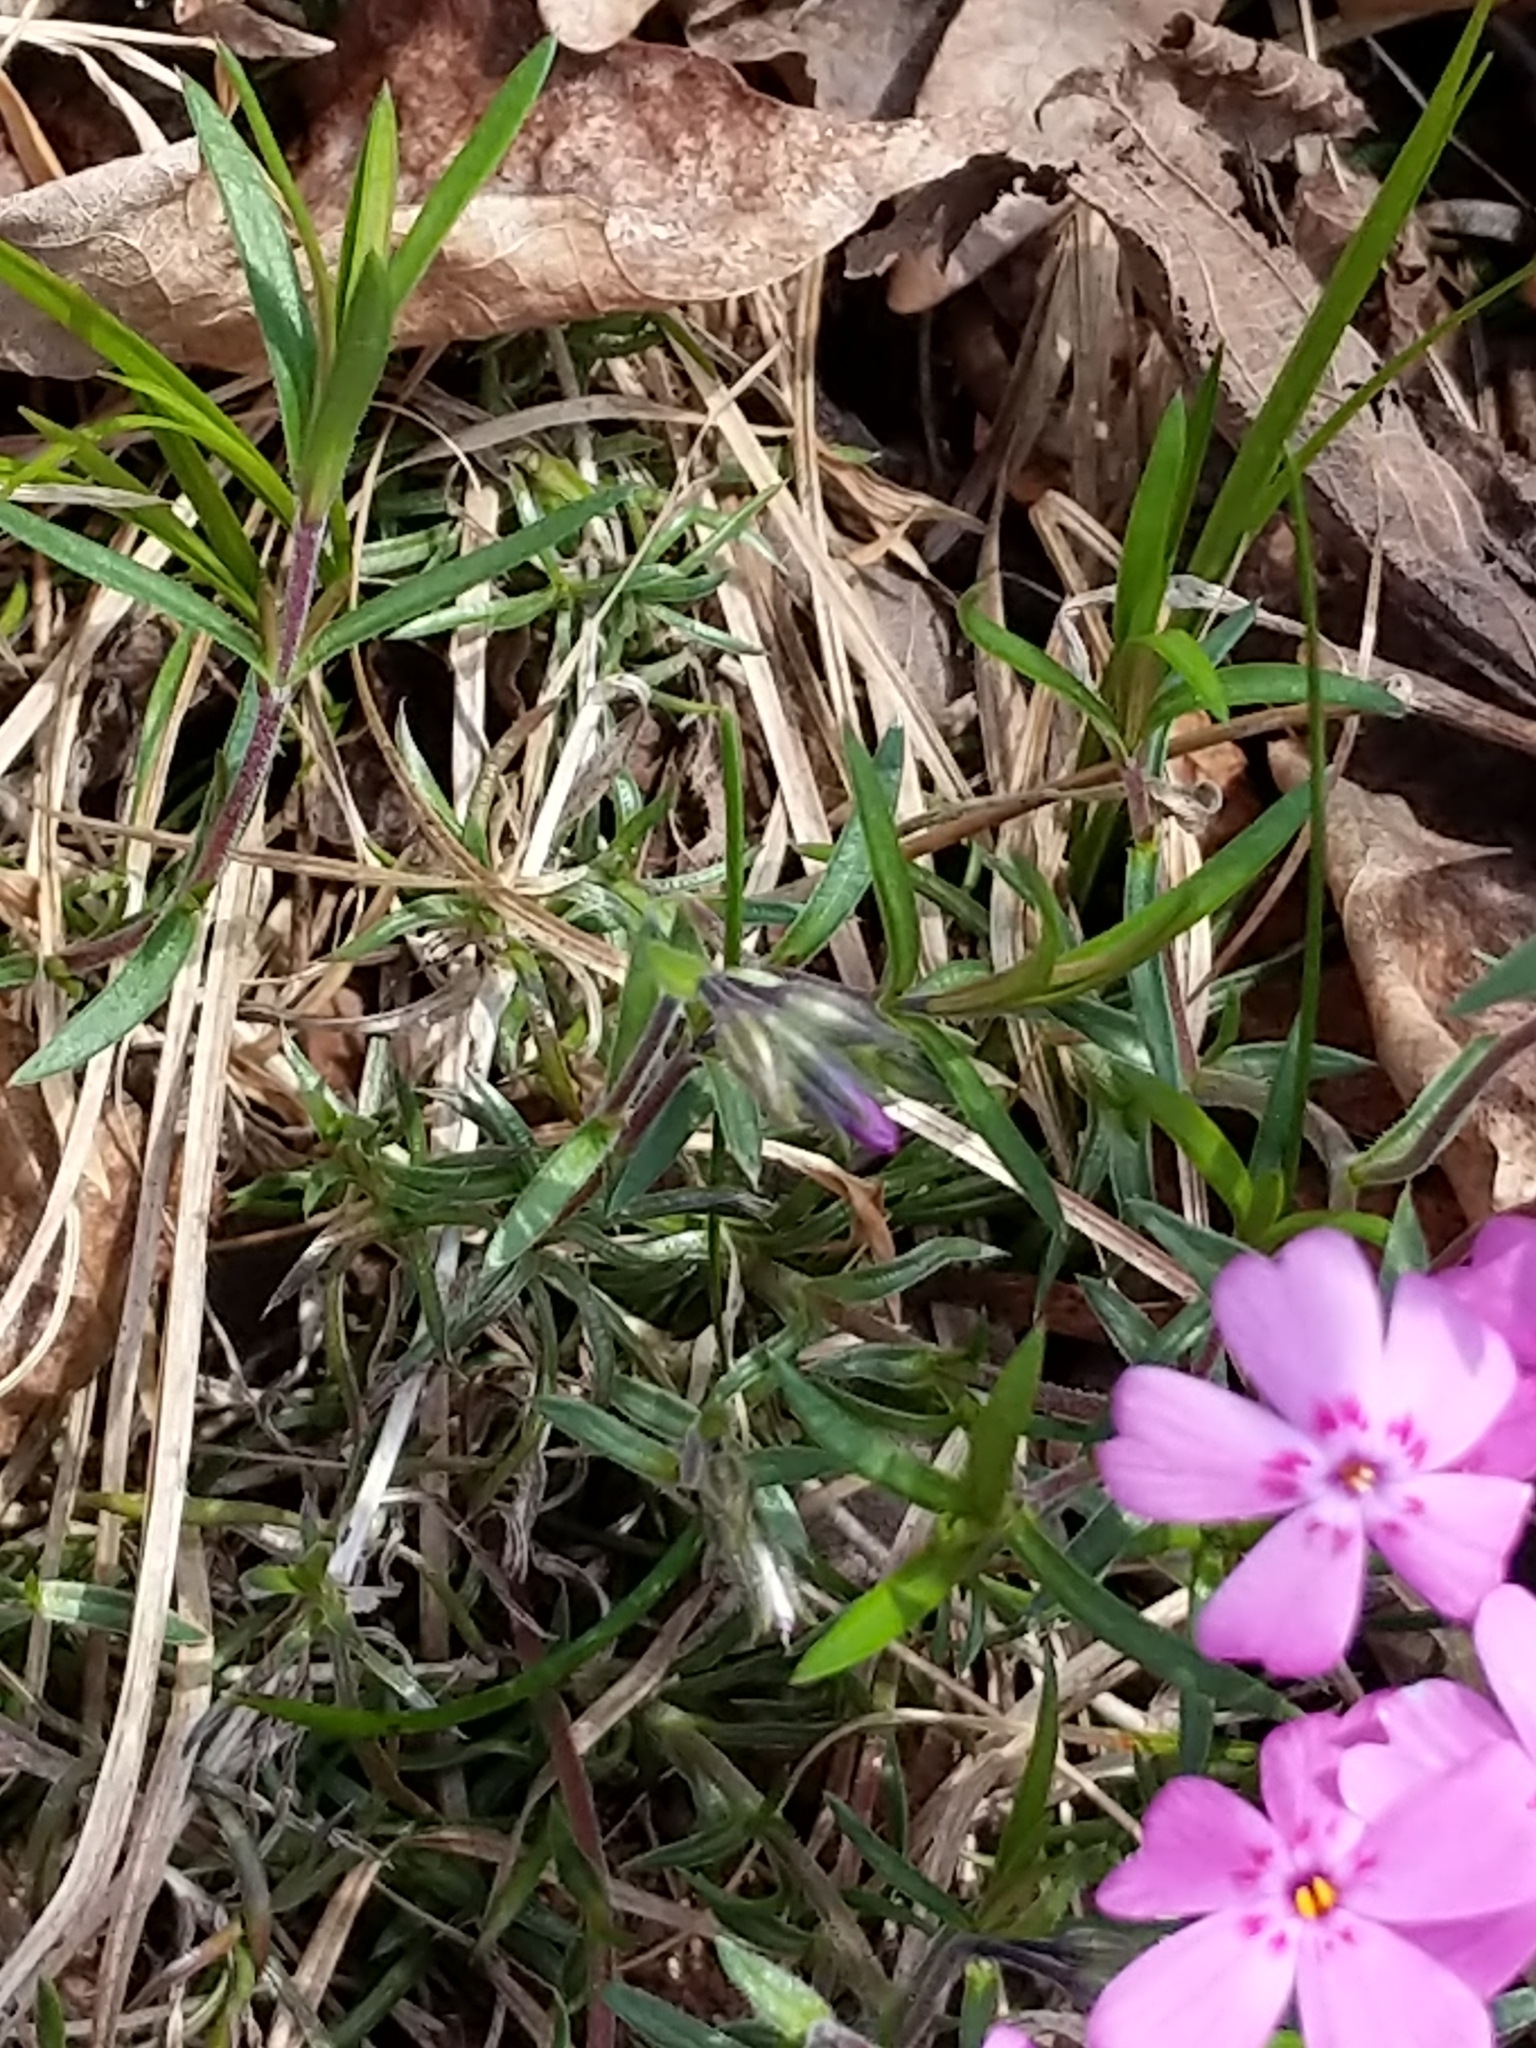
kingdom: Plantae
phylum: Tracheophyta
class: Magnoliopsida
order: Ericales
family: Polemoniaceae
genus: Phlox
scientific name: Phlox subulata
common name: Moss phlox
